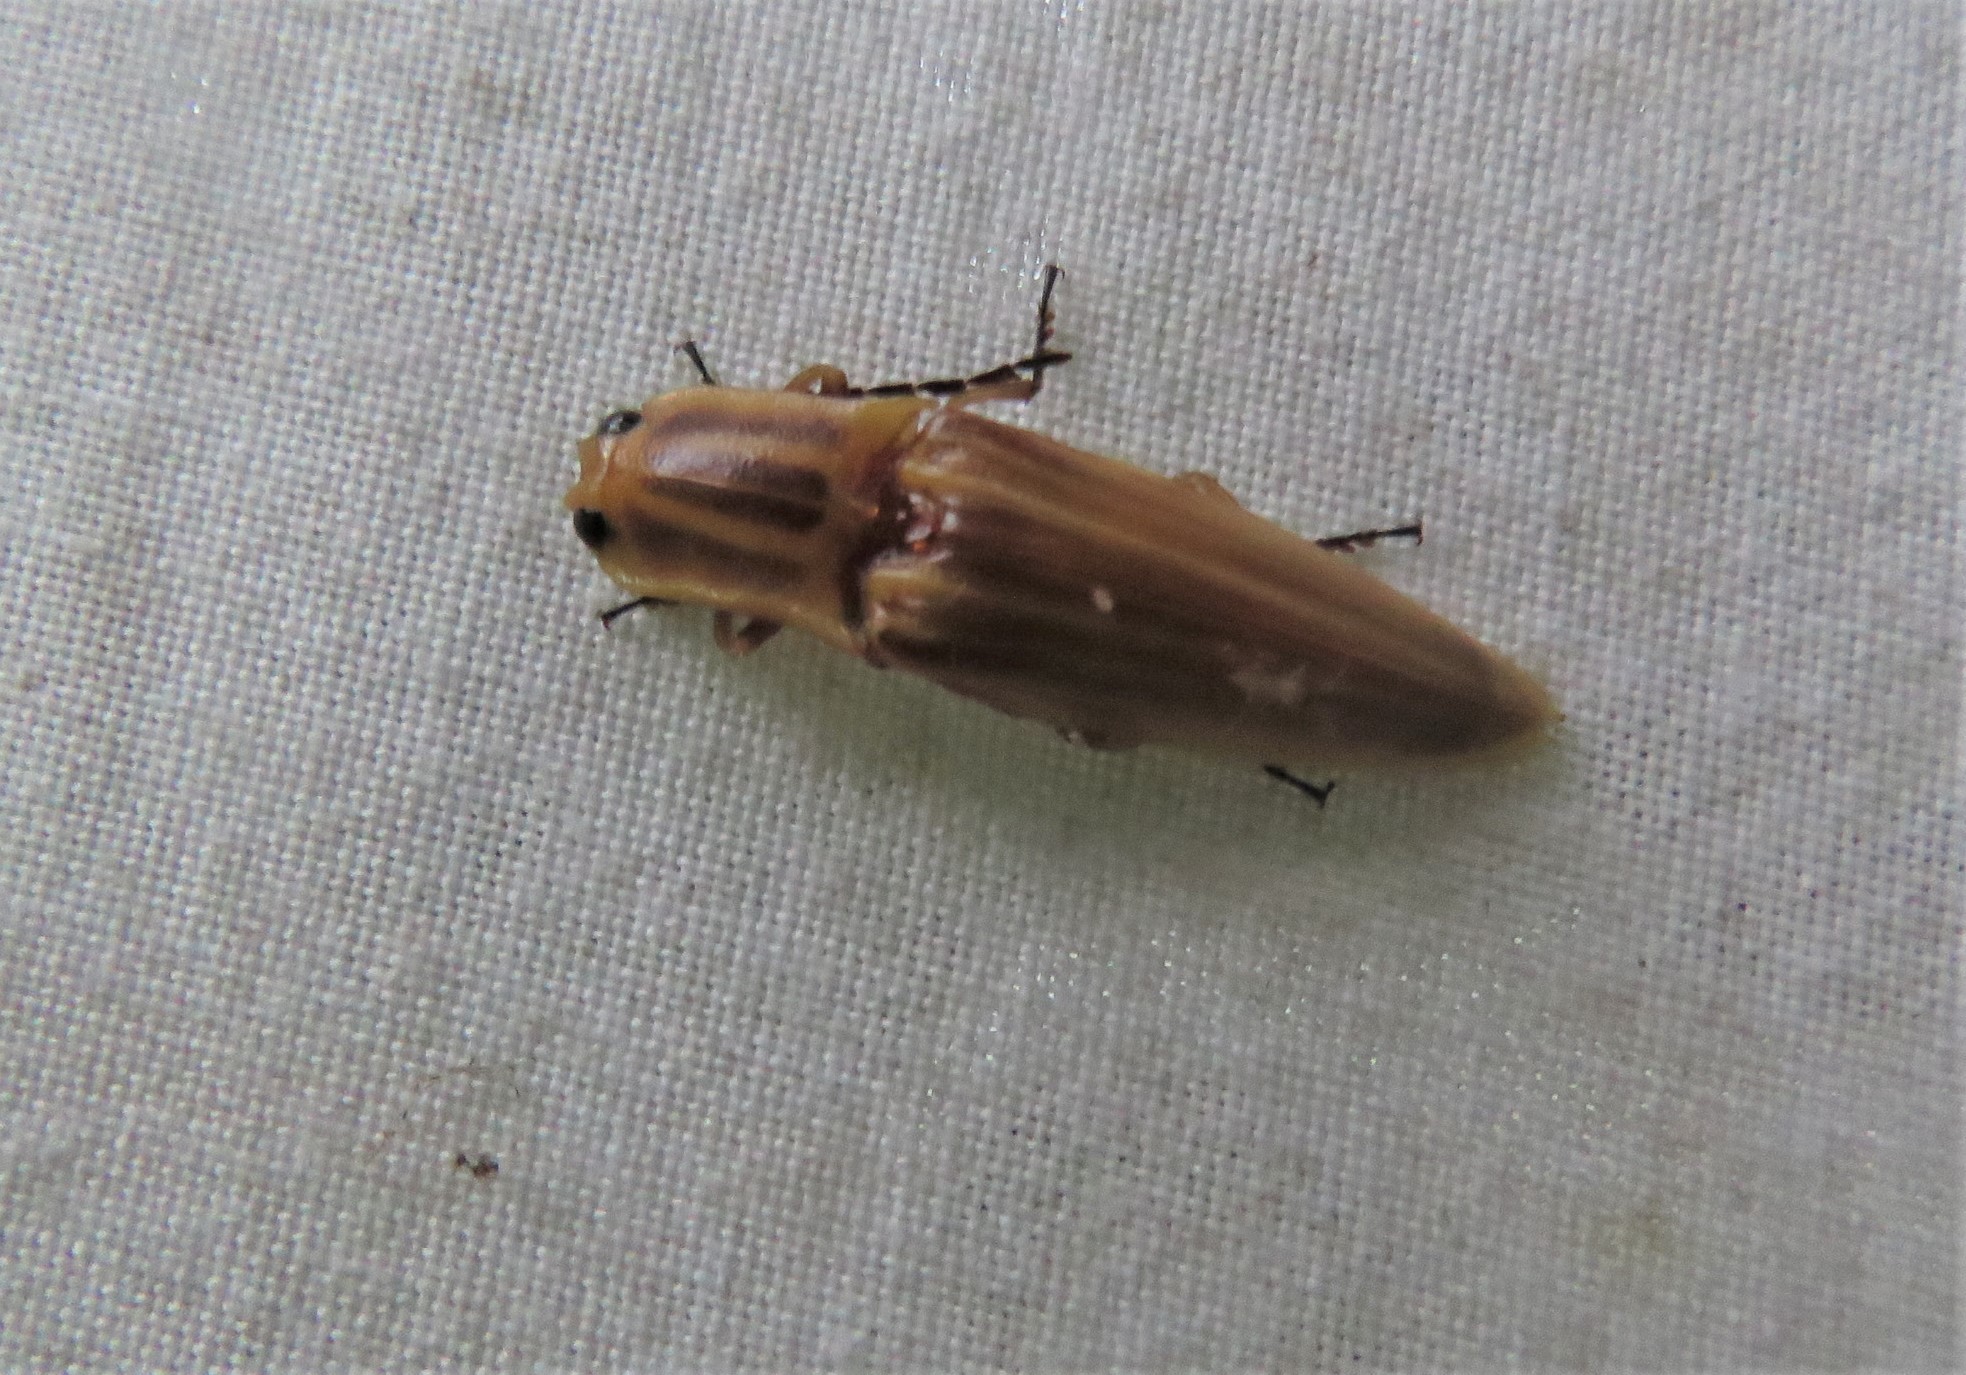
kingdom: Animalia
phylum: Arthropoda
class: Insecta
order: Coleoptera
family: Elateridae
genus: Semiotus
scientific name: Semiotus ligneus
